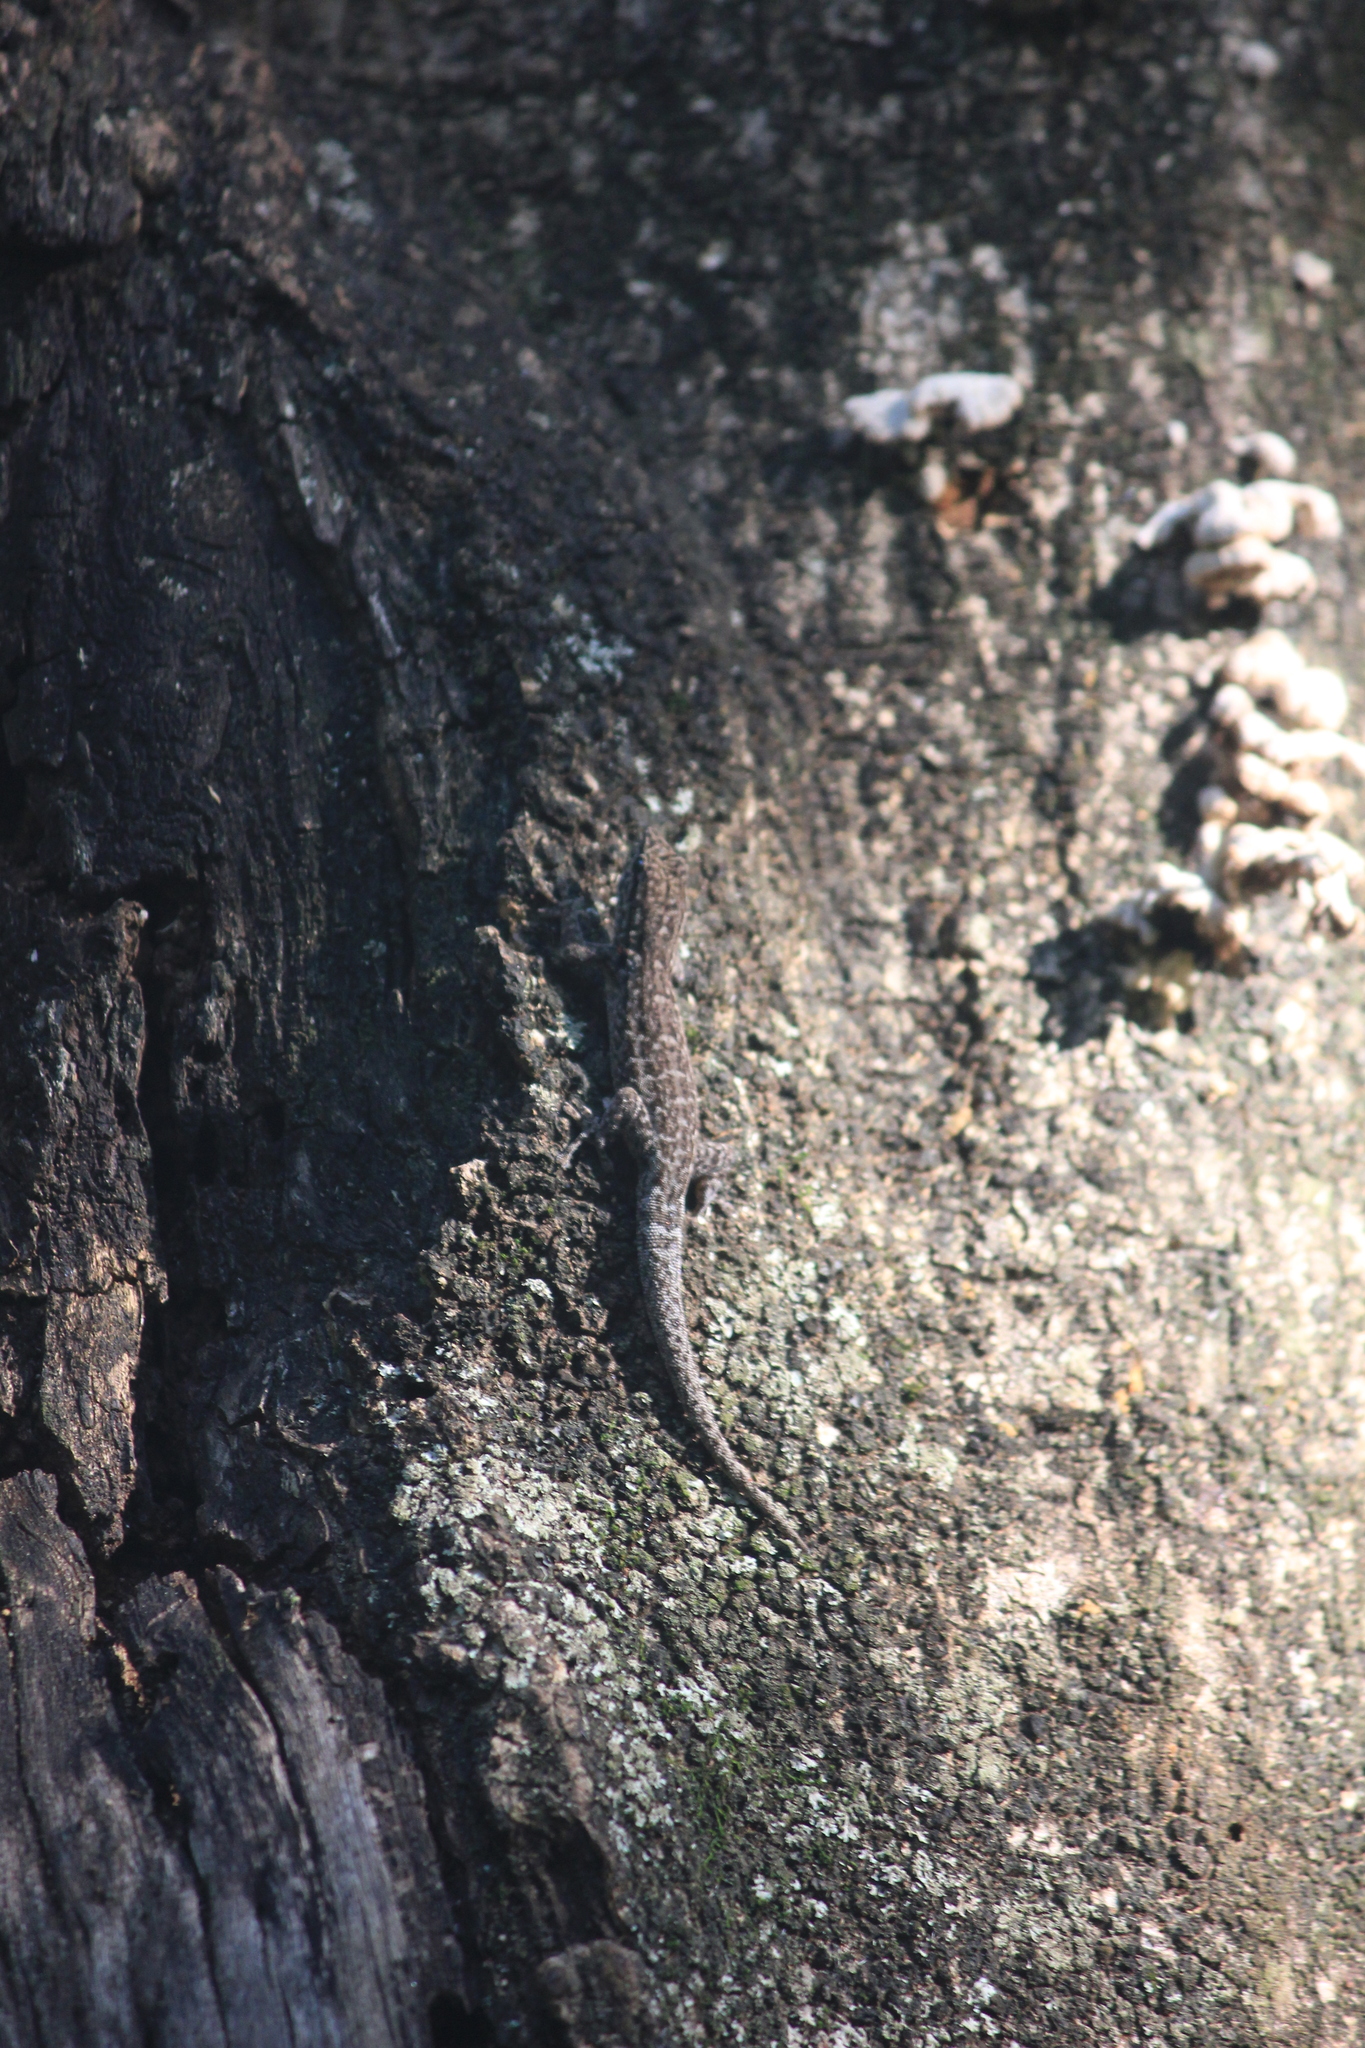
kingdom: Animalia
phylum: Chordata
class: Squamata
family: Gekkonidae
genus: Lygodactylus
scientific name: Lygodactylus incognitus
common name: Cryptic dwarf gecko
